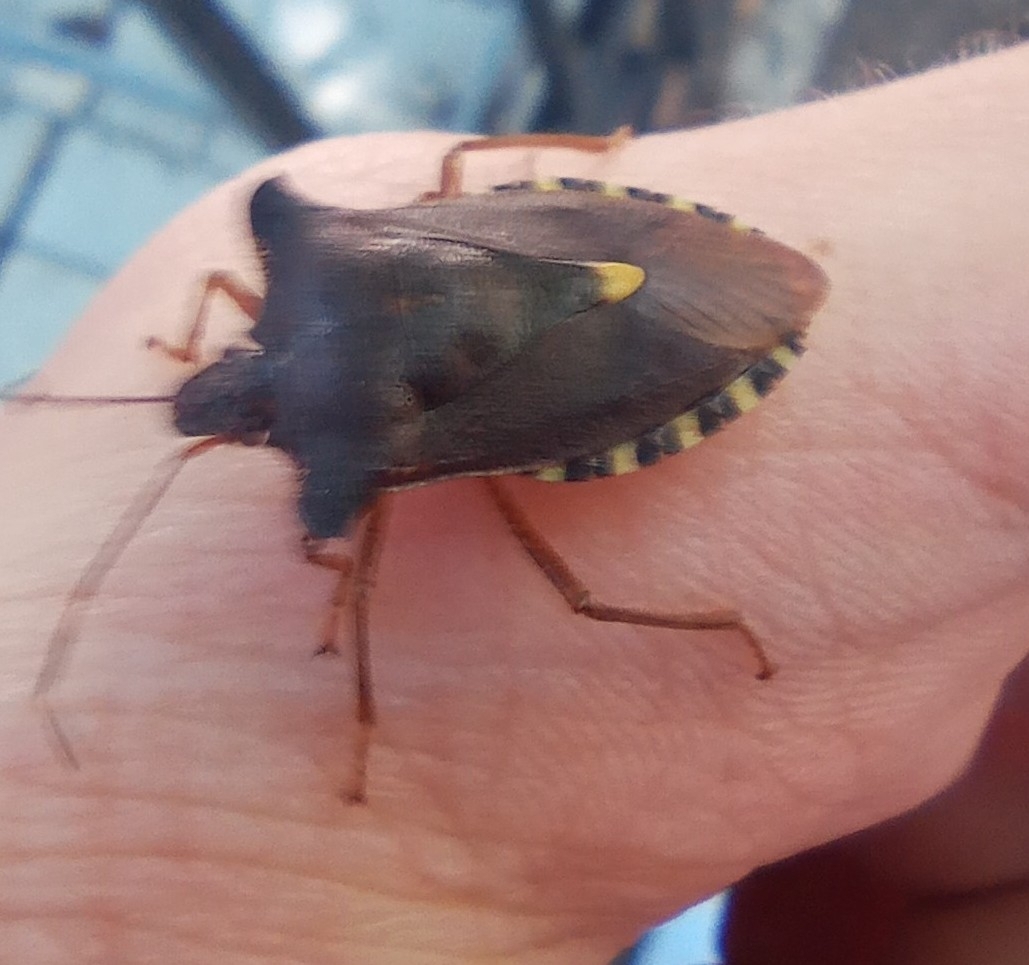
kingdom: Animalia
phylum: Arthropoda
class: Insecta
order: Hemiptera
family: Pentatomidae
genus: Pentatoma
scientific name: Pentatoma rufipes
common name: Forest bug
